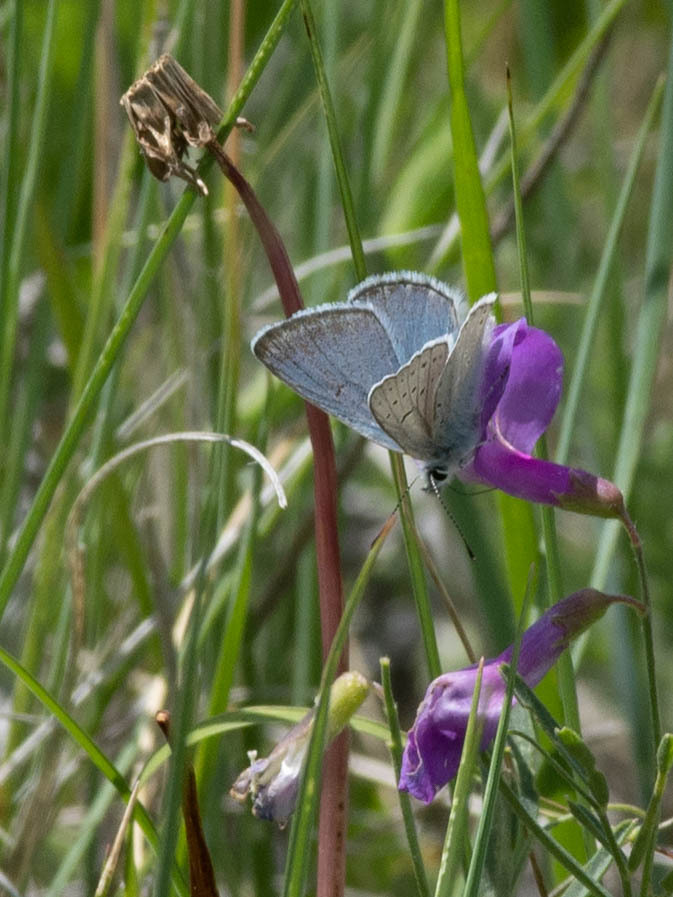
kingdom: Animalia
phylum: Arthropoda
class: Insecta
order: Lepidoptera
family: Lycaenidae
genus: Icaricia
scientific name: Icaricia saepiolus
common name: Greenish blue
